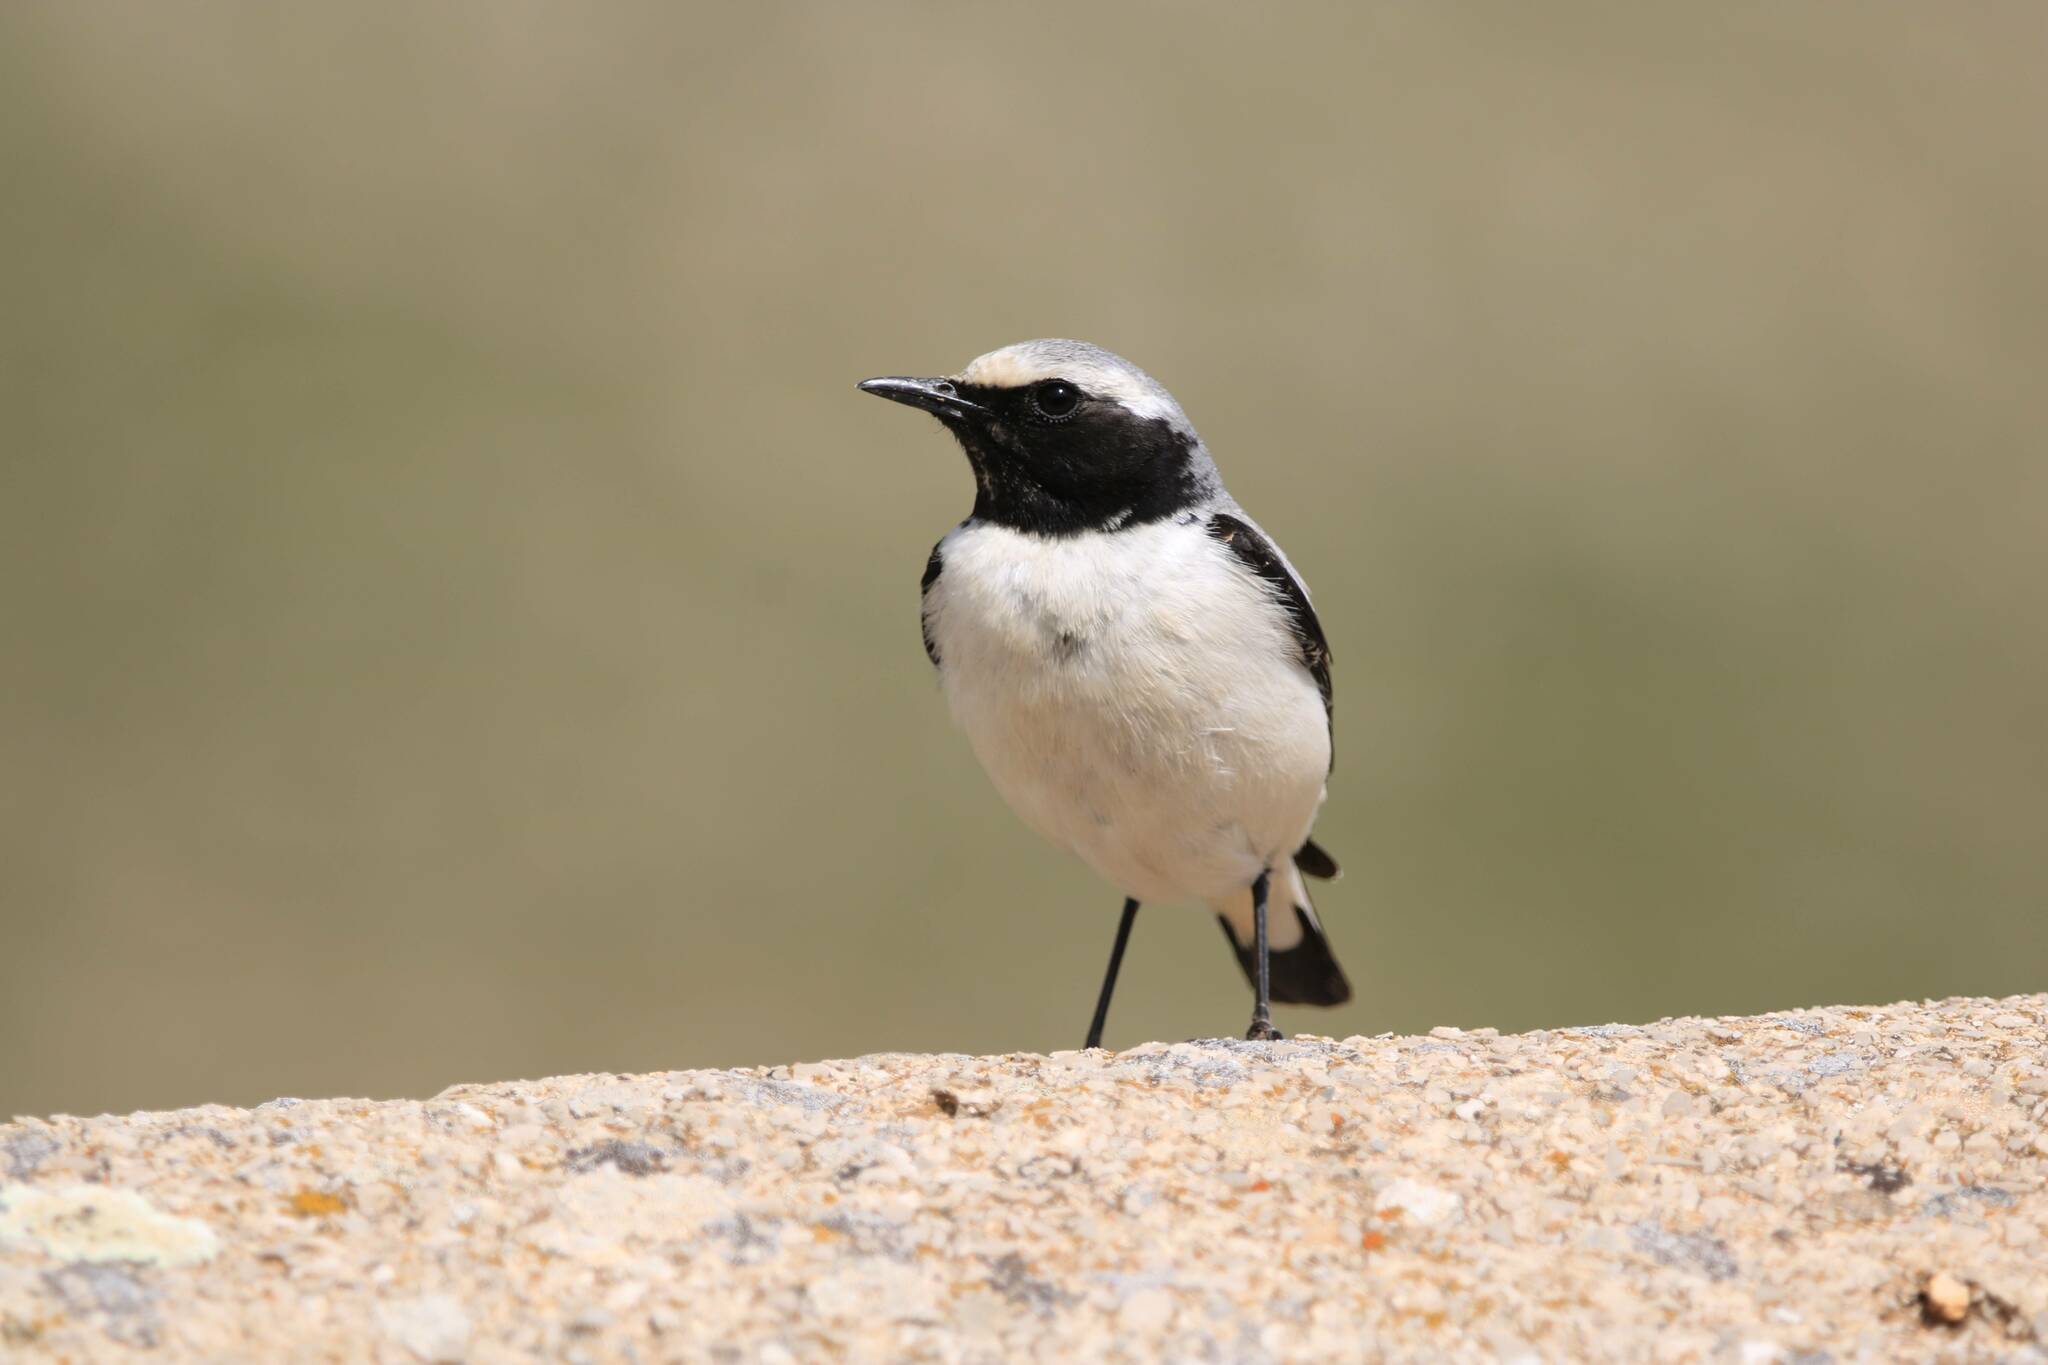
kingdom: Animalia
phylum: Chordata
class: Aves
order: Passeriformes
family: Muscicapidae
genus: Oenanthe
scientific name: Oenanthe oenanthe
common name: Northern wheatear
